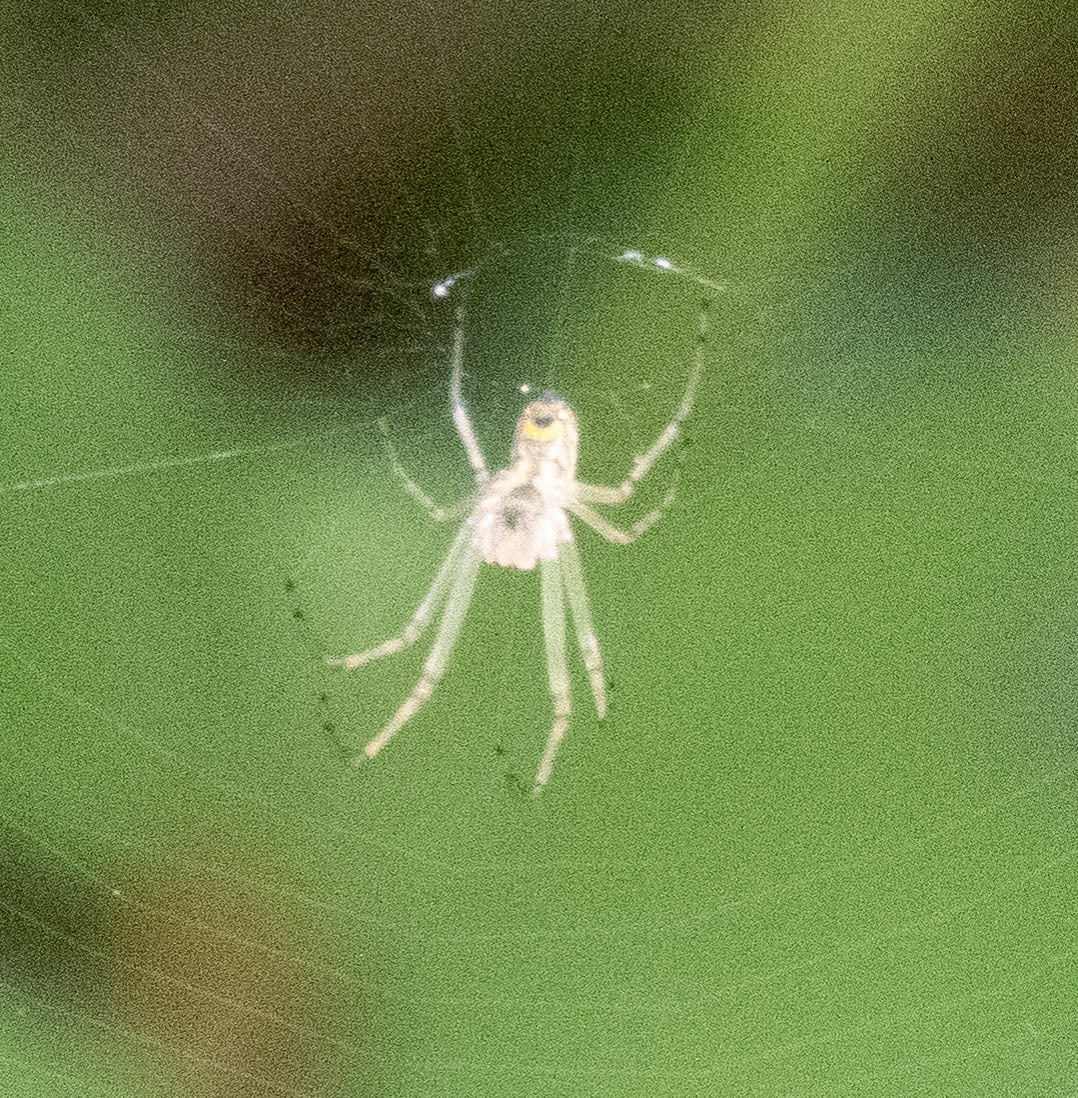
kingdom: Animalia
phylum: Arthropoda
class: Arachnida
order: Araneae
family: Tetragnathidae
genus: Leucauge
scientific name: Leucauge venusta
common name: Longjawed orb weavers
